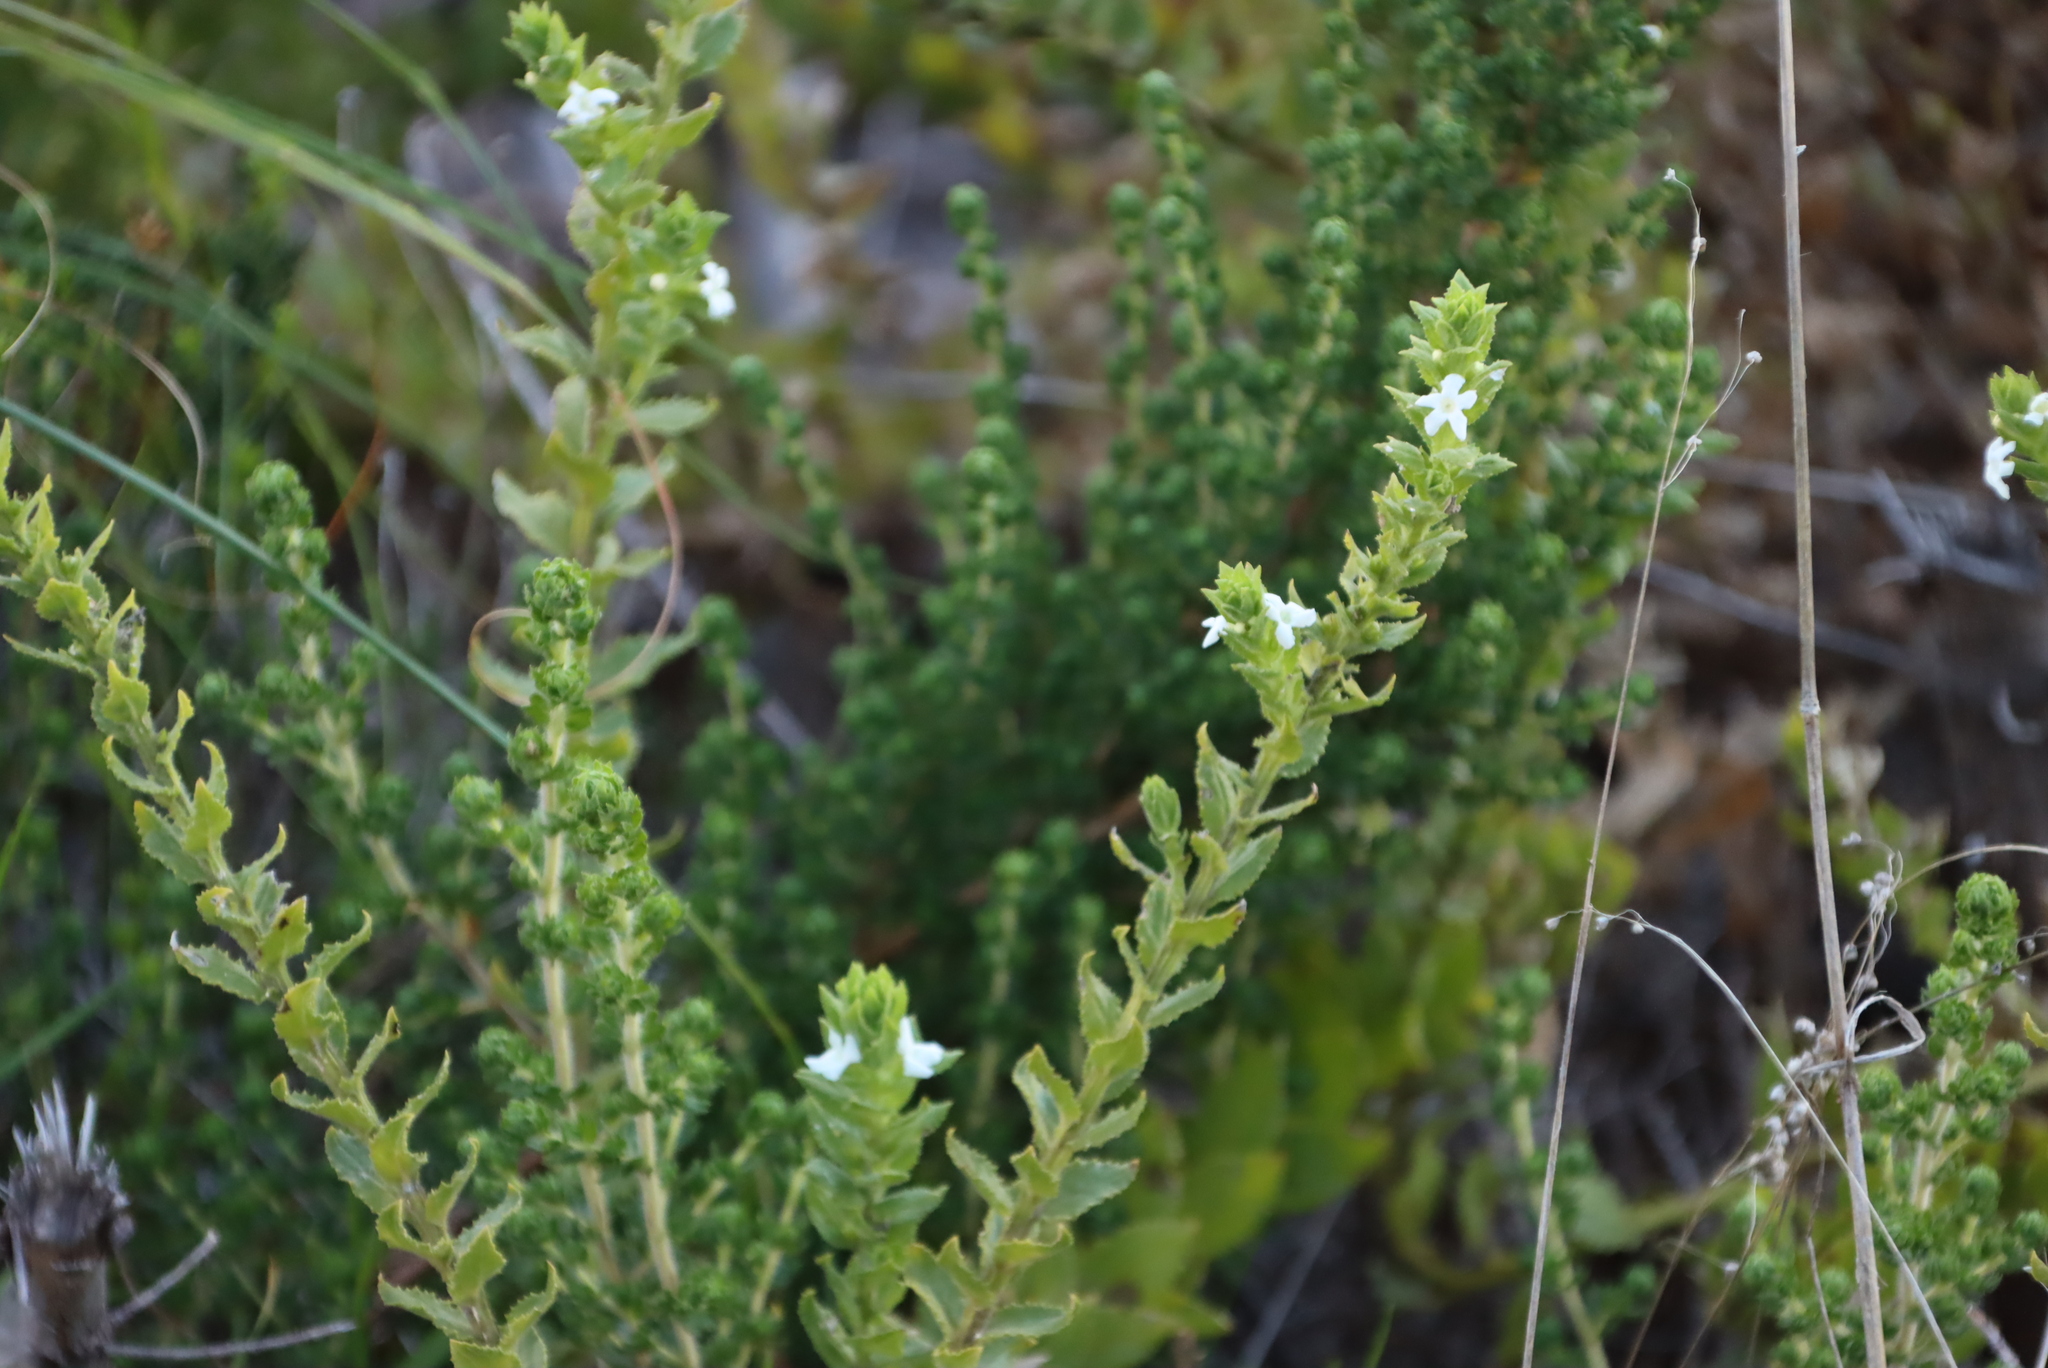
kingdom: Plantae
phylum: Tracheophyta
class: Magnoliopsida
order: Lamiales
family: Scrophulariaceae
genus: Oftia
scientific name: Oftia africana
